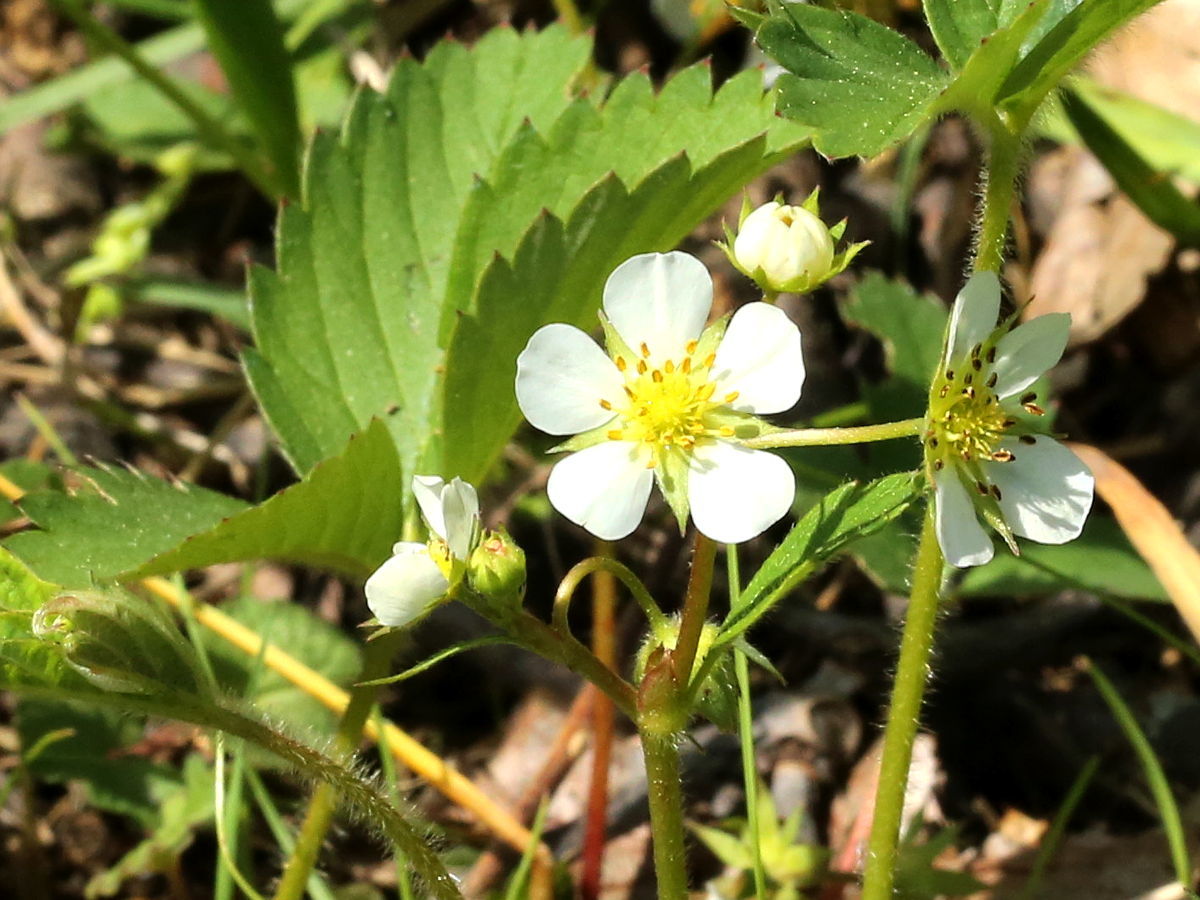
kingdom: Plantae
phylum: Tracheophyta
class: Magnoliopsida
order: Rosales
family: Rosaceae
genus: Fragaria
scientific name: Fragaria virginiana
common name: Thickleaved wild strawberry
